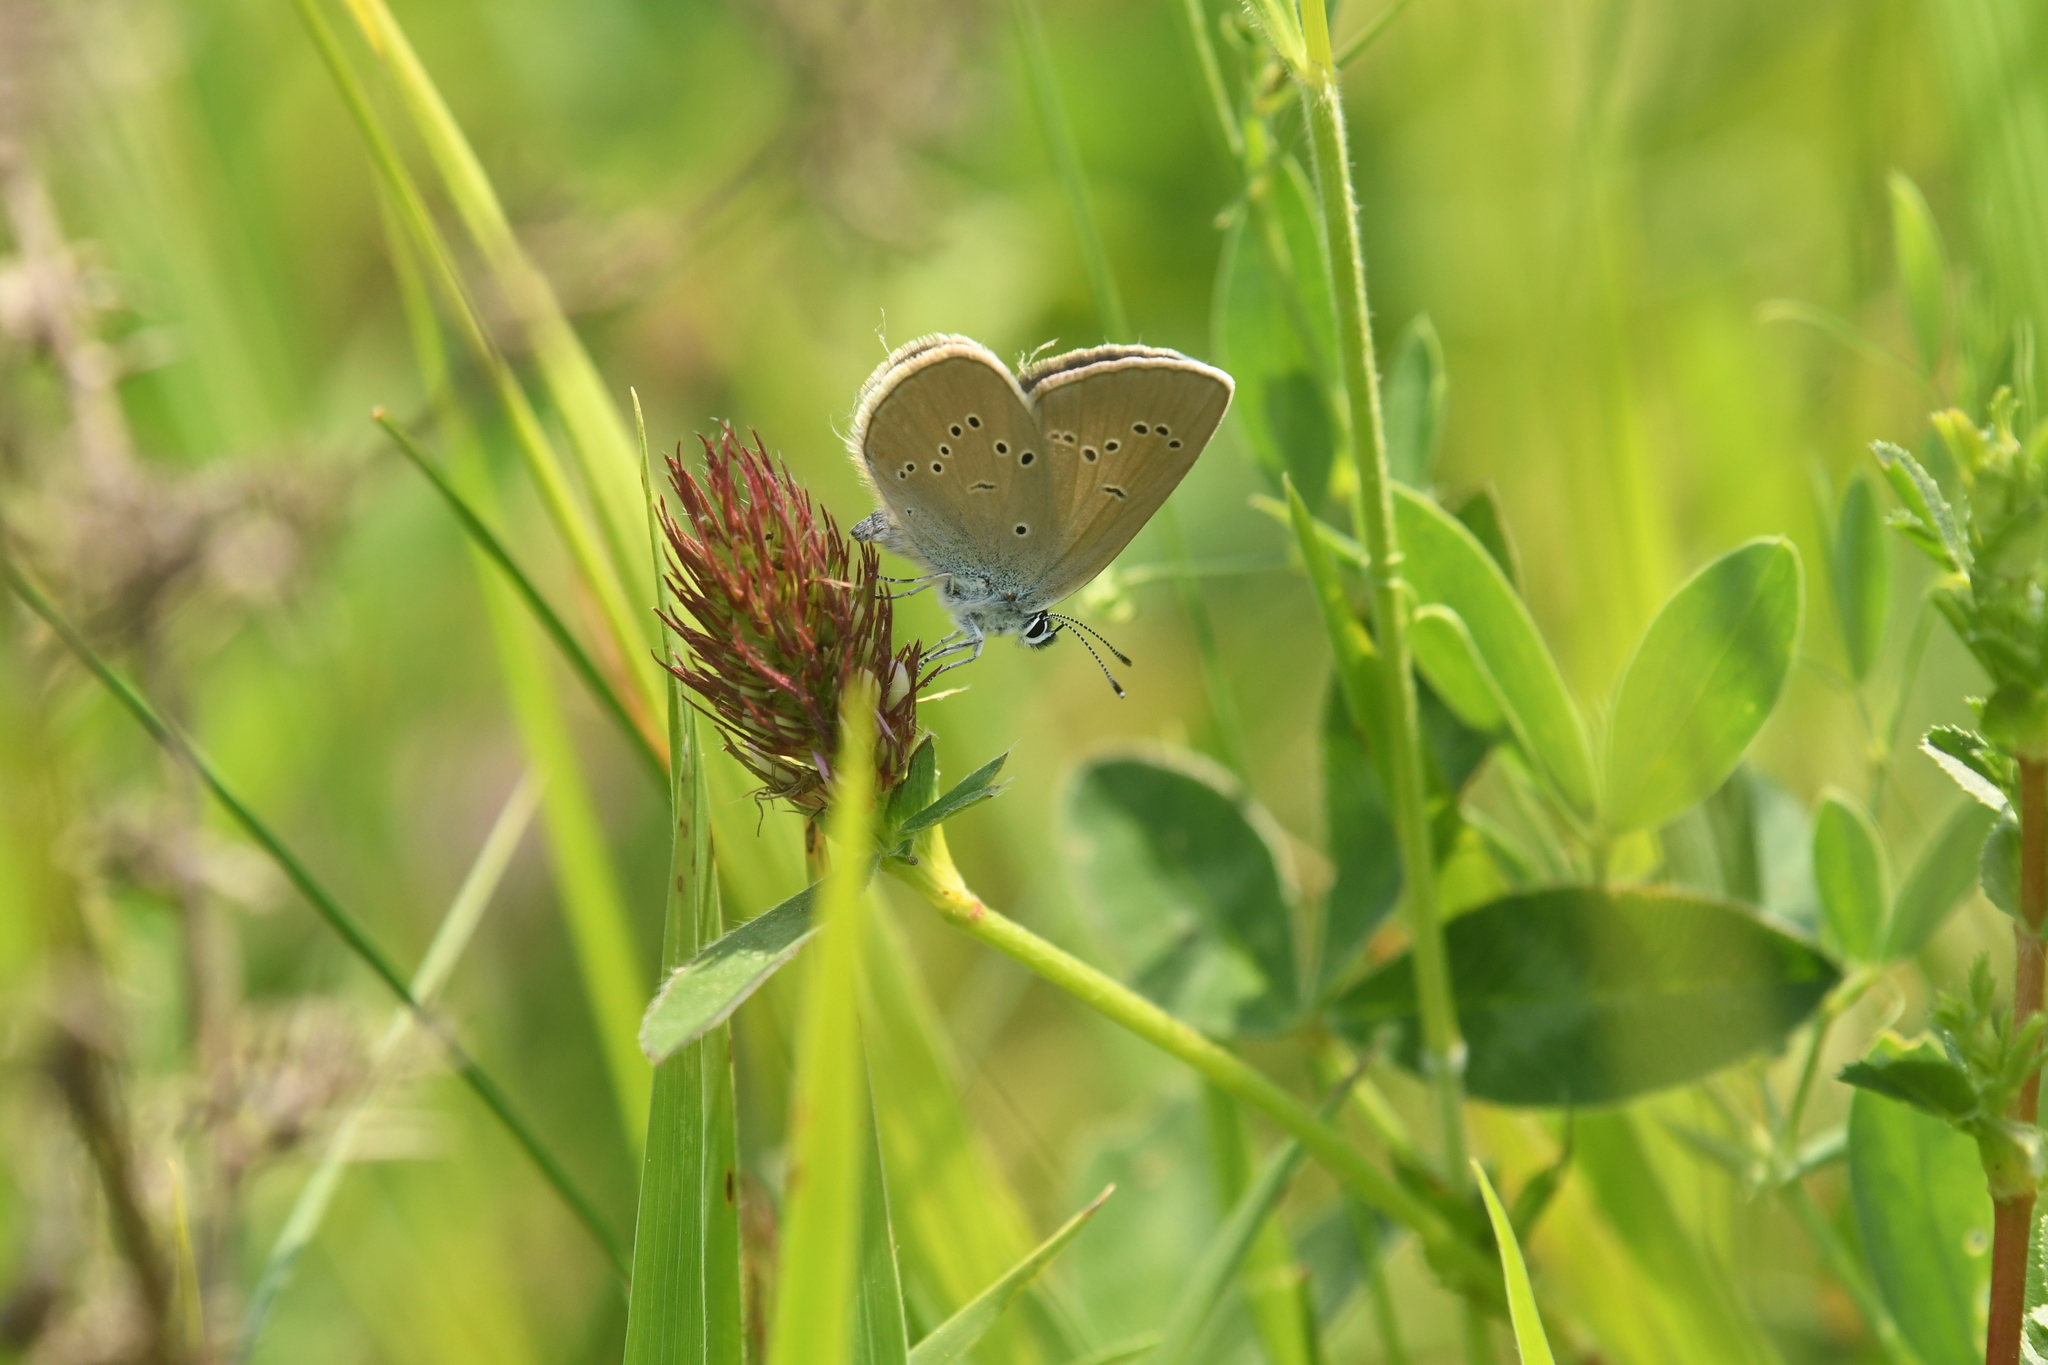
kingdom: Animalia
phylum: Arthropoda
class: Insecta
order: Lepidoptera
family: Lycaenidae
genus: Cyaniris
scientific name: Cyaniris semiargus
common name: Mazarine blue
